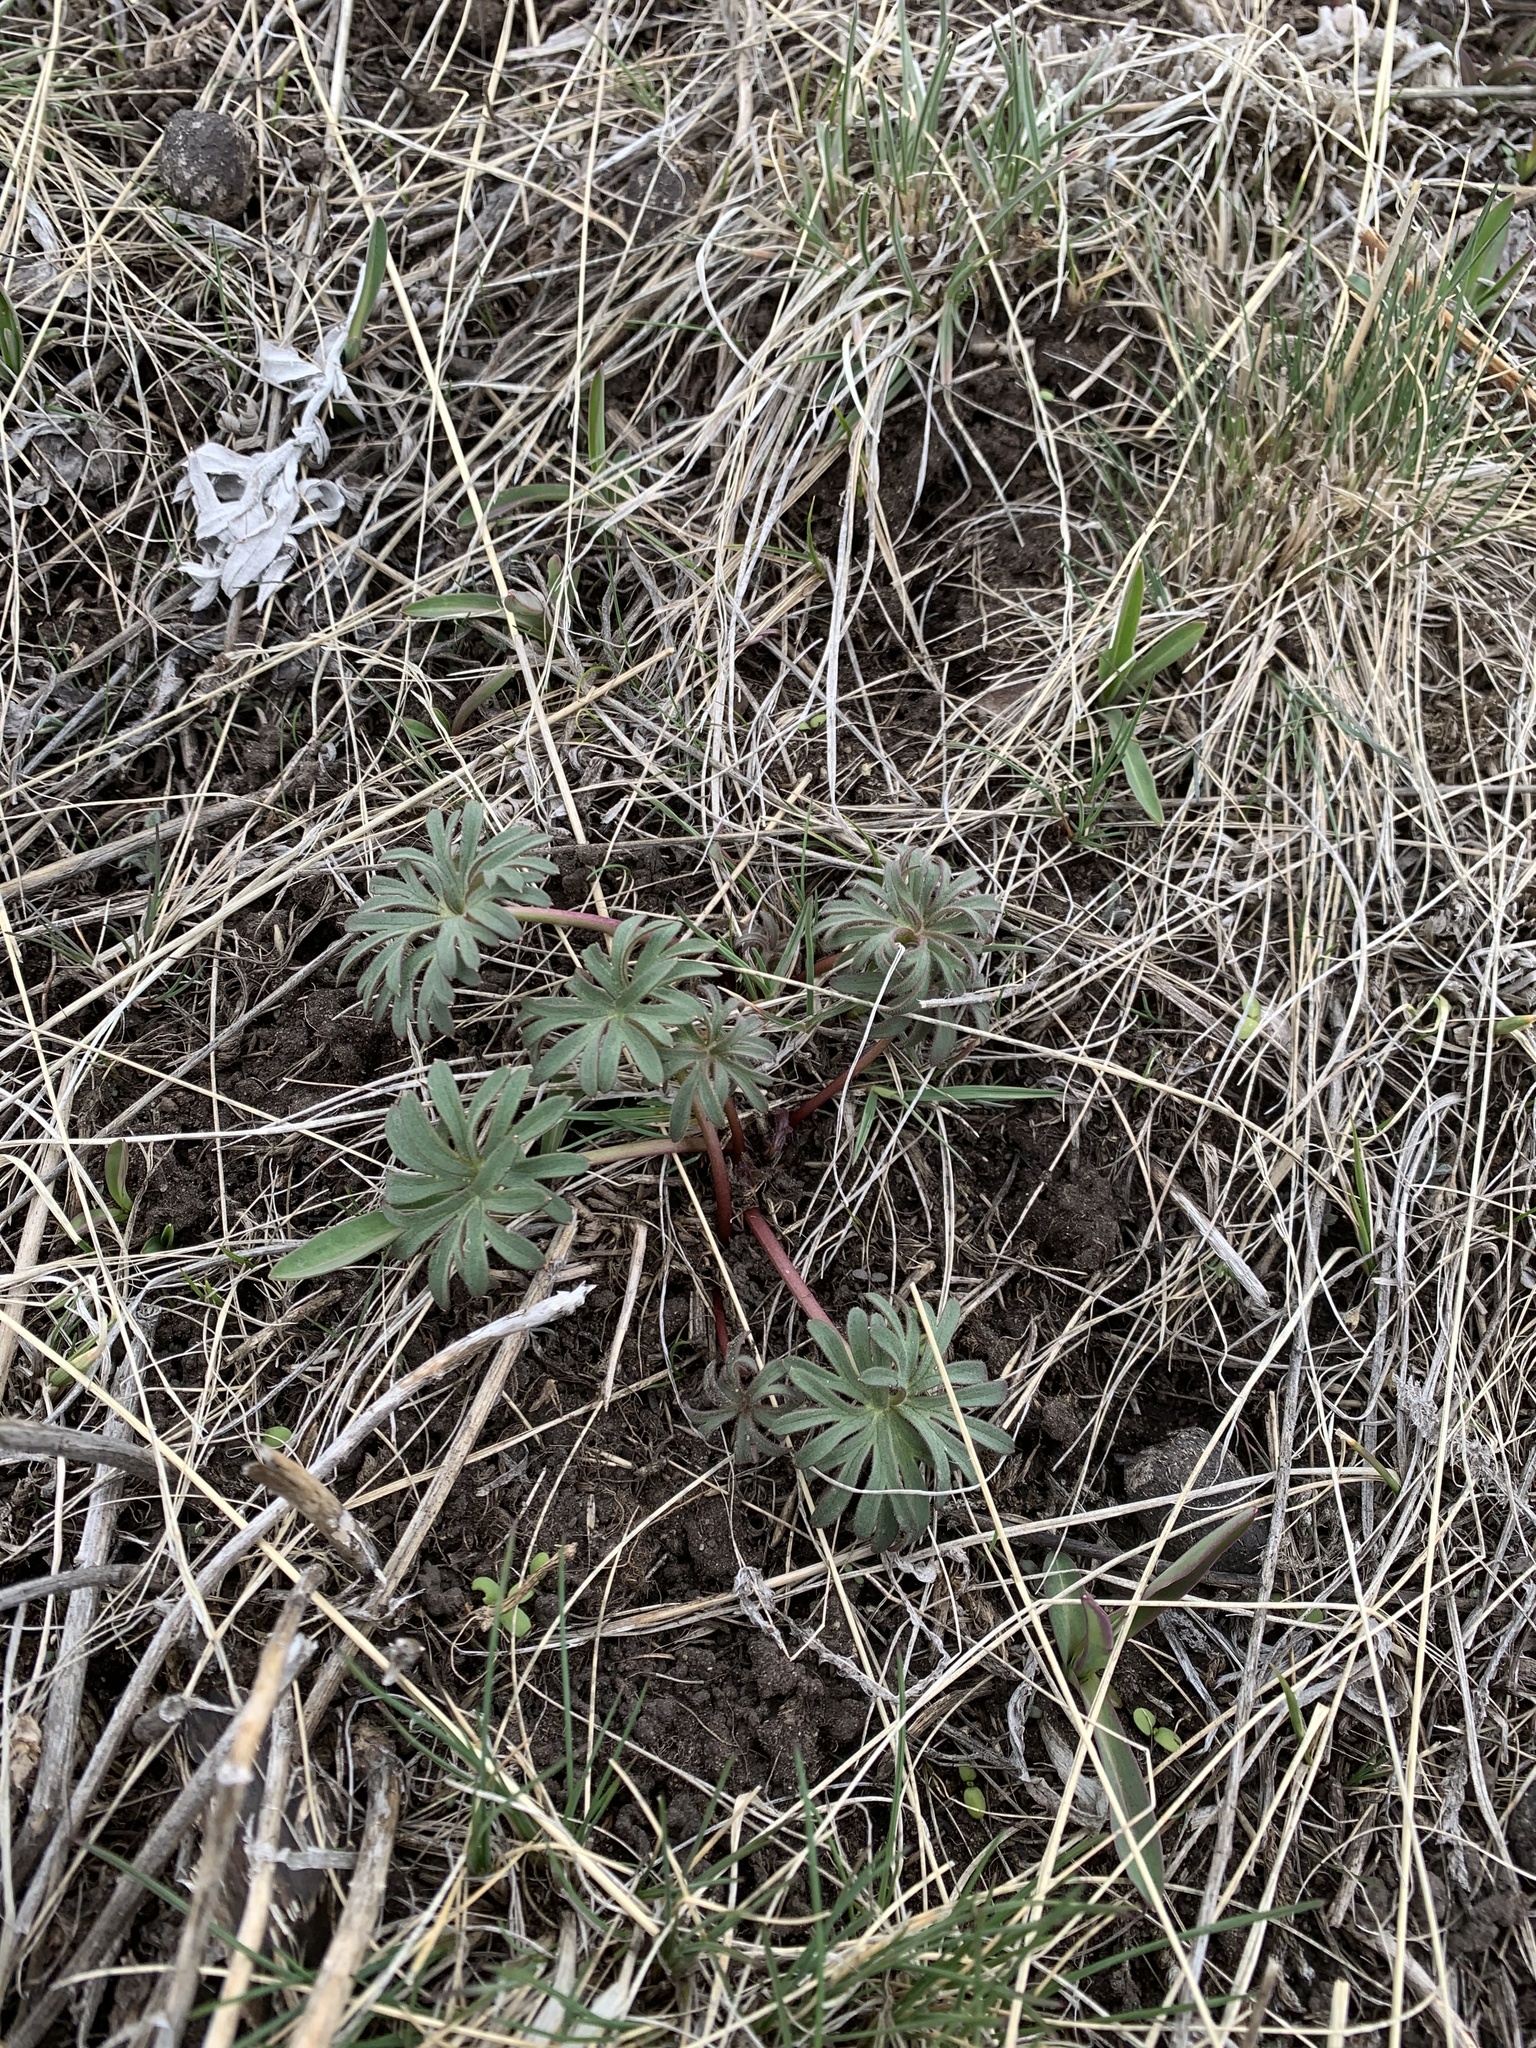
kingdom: Plantae
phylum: Tracheophyta
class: Magnoliopsida
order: Ranunculales
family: Ranunculaceae
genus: Delphinium
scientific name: Delphinium bicolor
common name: Low larkspur
